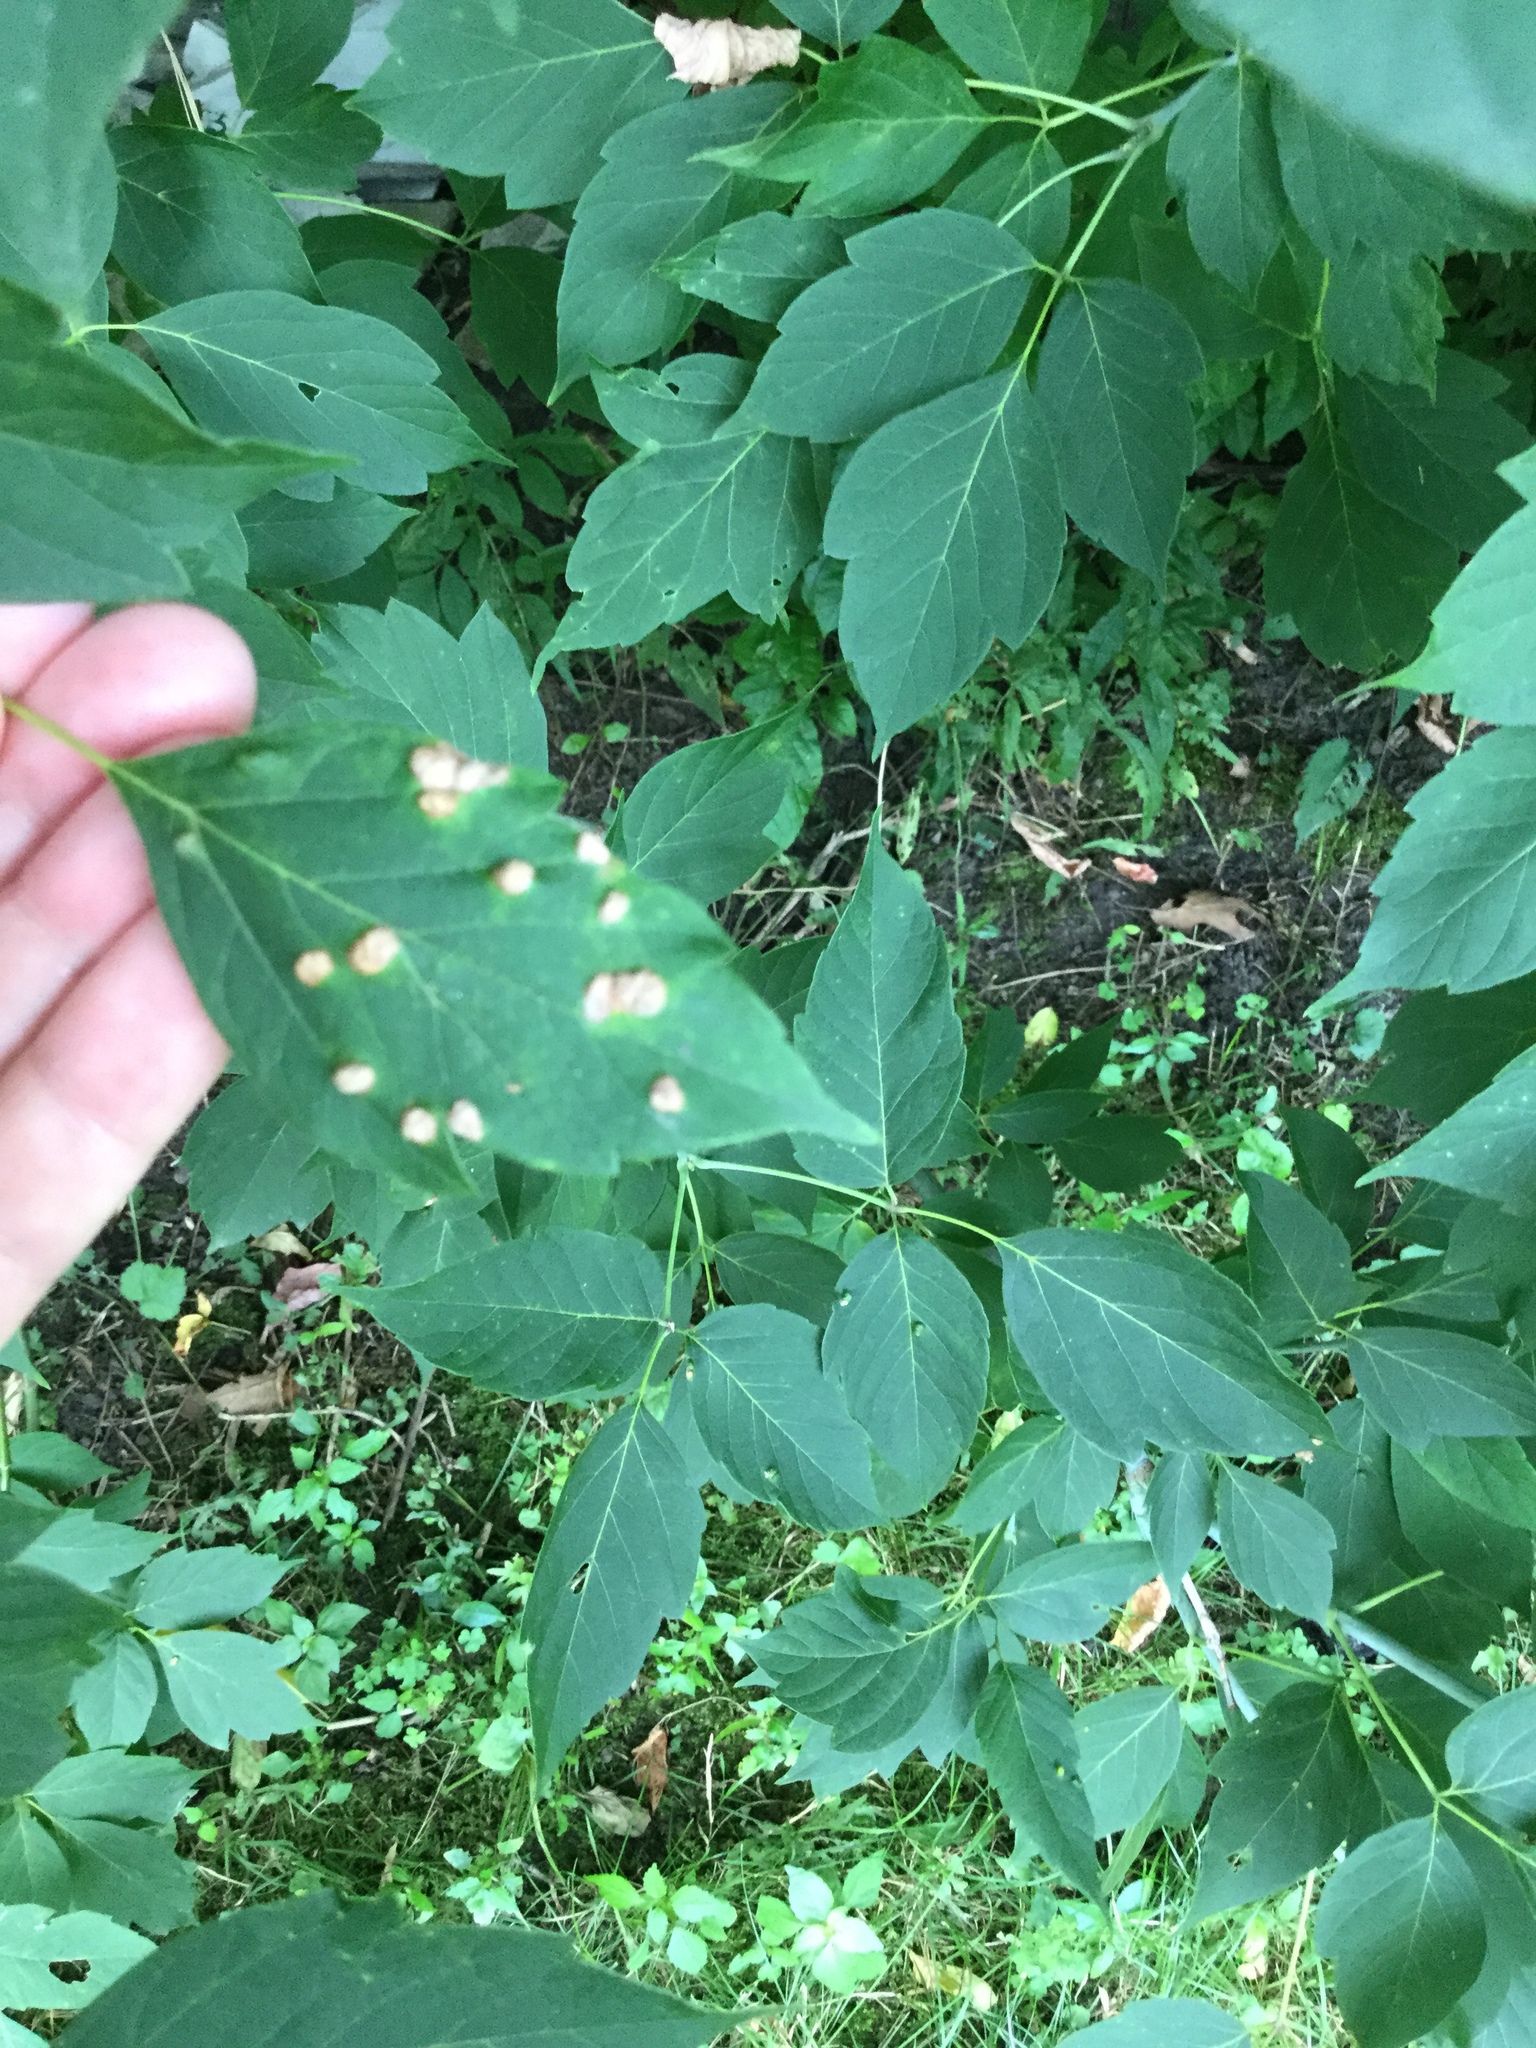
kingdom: Animalia
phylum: Arthropoda
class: Arachnida
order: Trombidiformes
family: Eriophyidae
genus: Aceria
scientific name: Aceria
